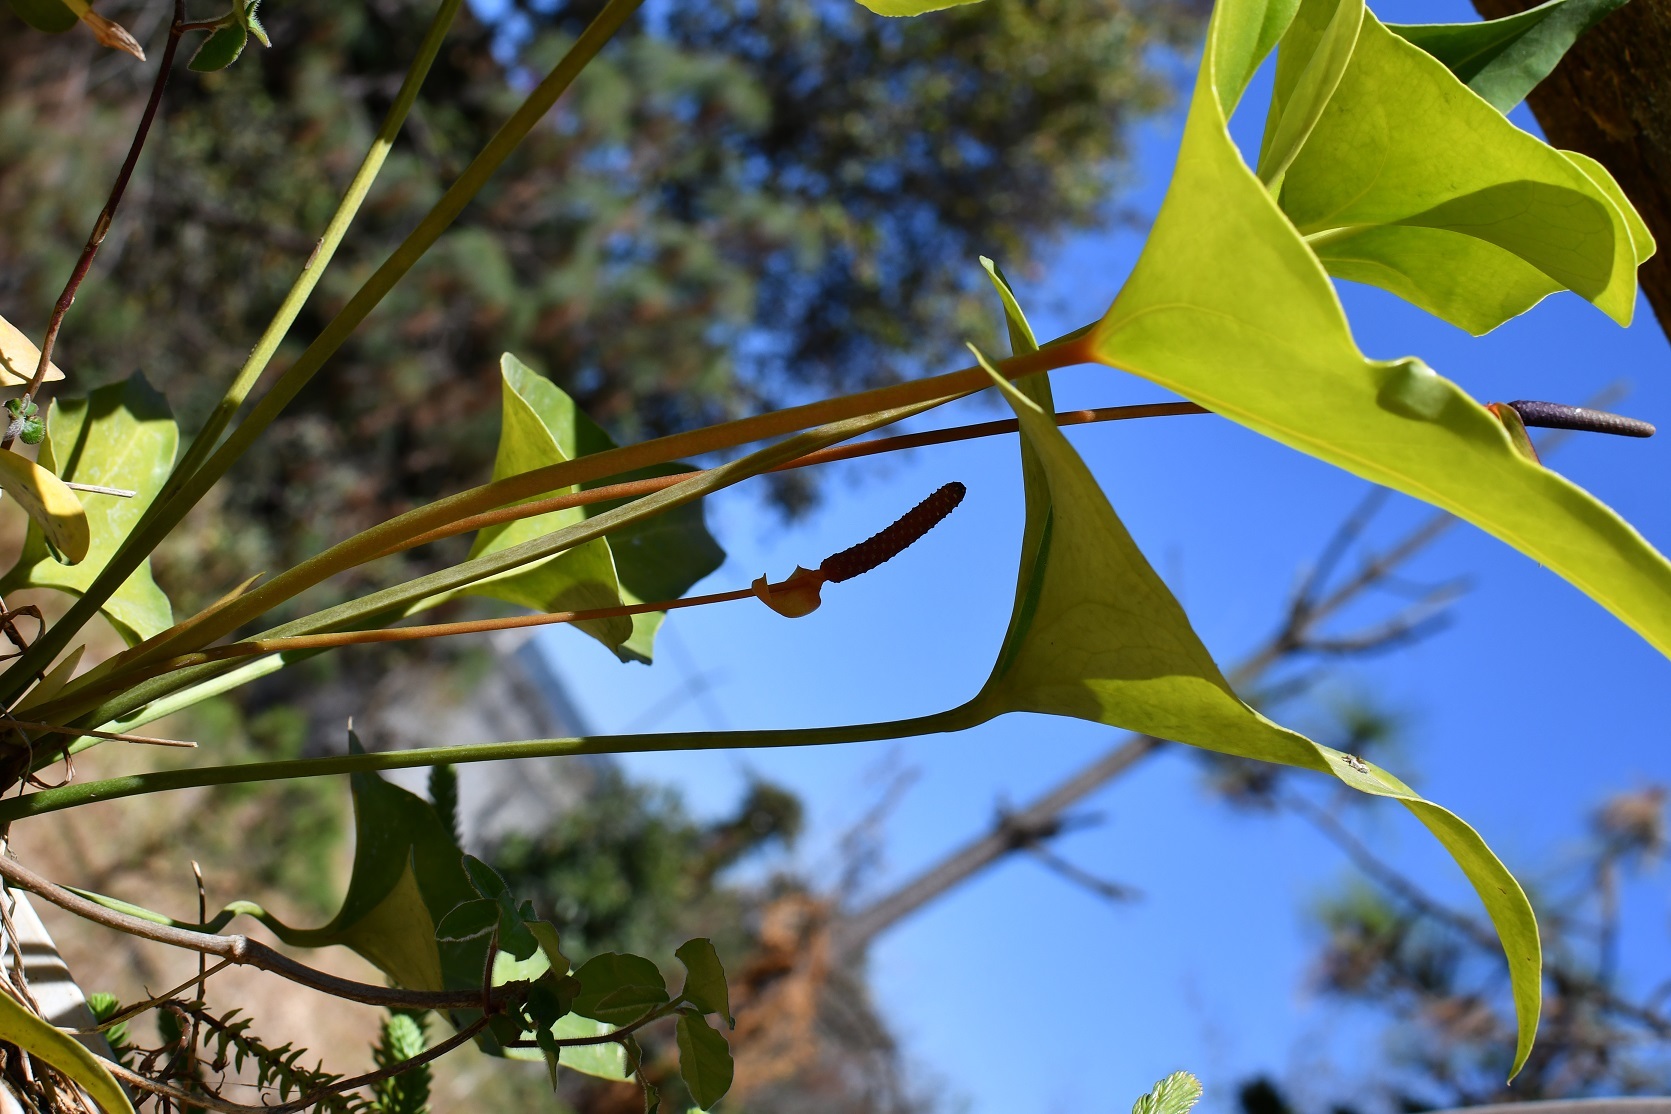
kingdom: Plantae
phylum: Tracheophyta
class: Liliopsida
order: Alismatales
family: Araceae
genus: Anthurium
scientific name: Anthurium cerrobaulense
